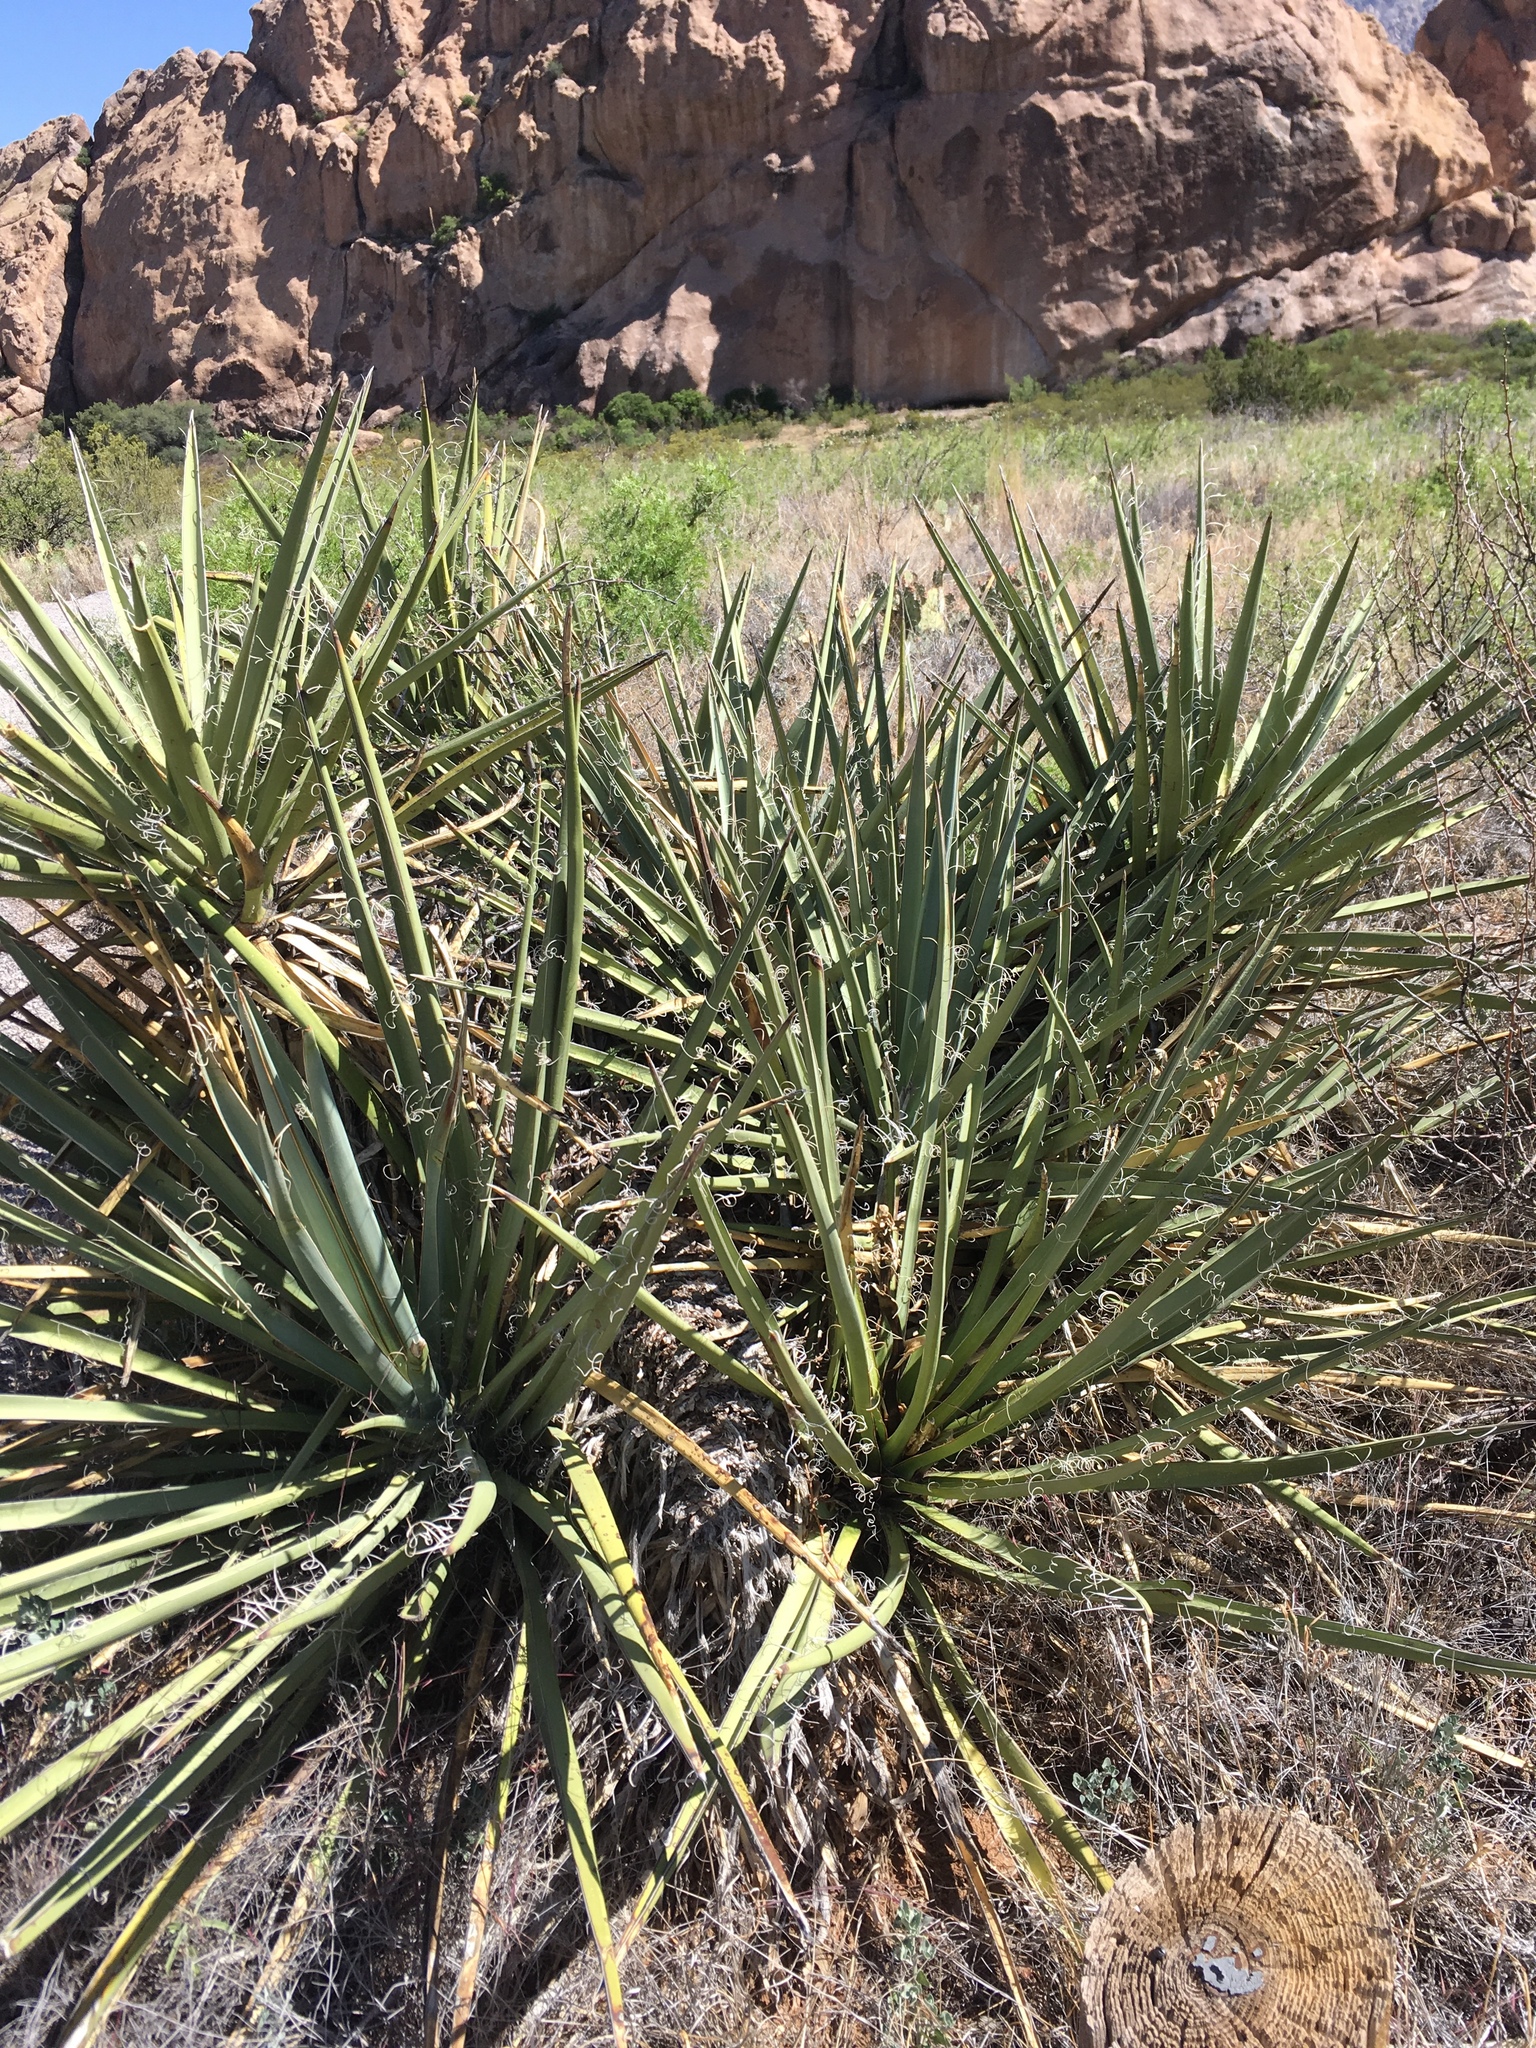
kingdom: Plantae
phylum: Tracheophyta
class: Liliopsida
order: Asparagales
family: Asparagaceae
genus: Yucca
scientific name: Yucca baccata
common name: Banana yucca
